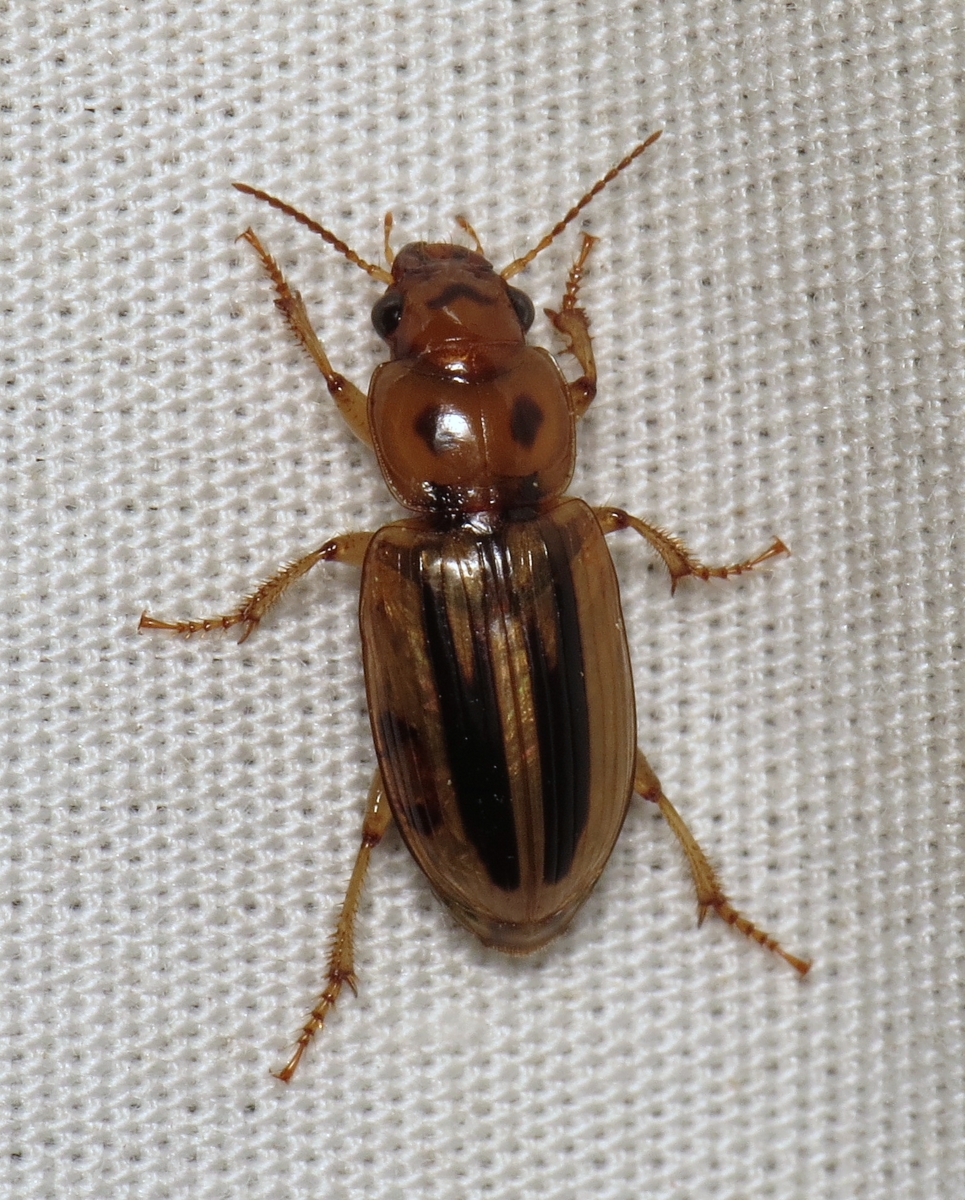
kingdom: Animalia
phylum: Arthropoda
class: Insecta
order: Coleoptera
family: Carabidae
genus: Stenolophus
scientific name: Stenolophus lineola
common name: Lined stenolophus
